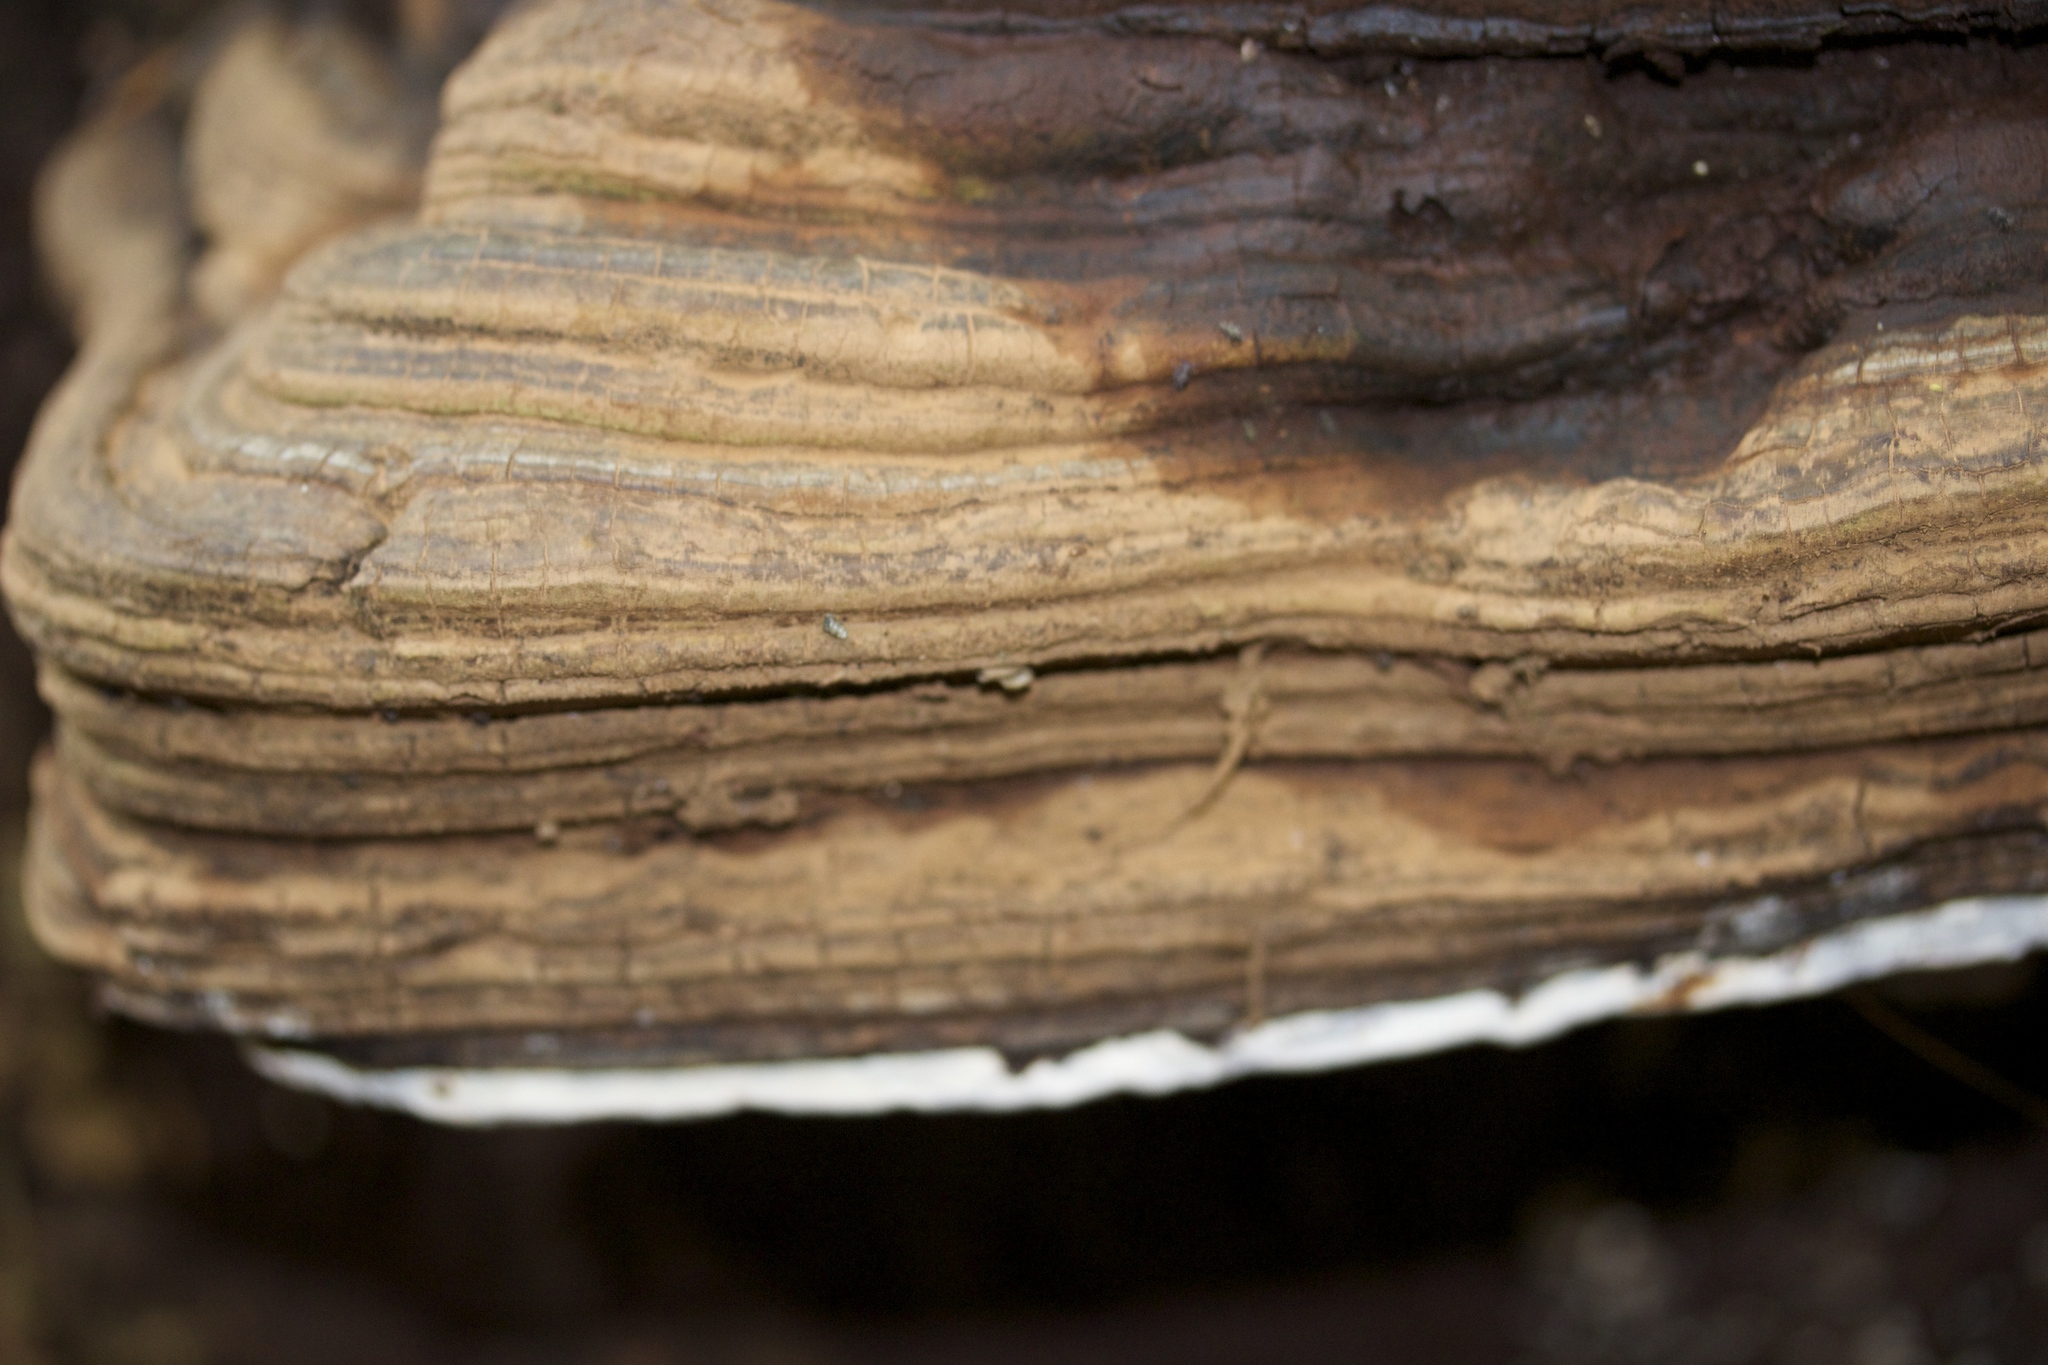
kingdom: Fungi
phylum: Basidiomycota
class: Agaricomycetes
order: Polyporales
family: Polyporaceae
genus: Ganoderma
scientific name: Ganoderma brownii
